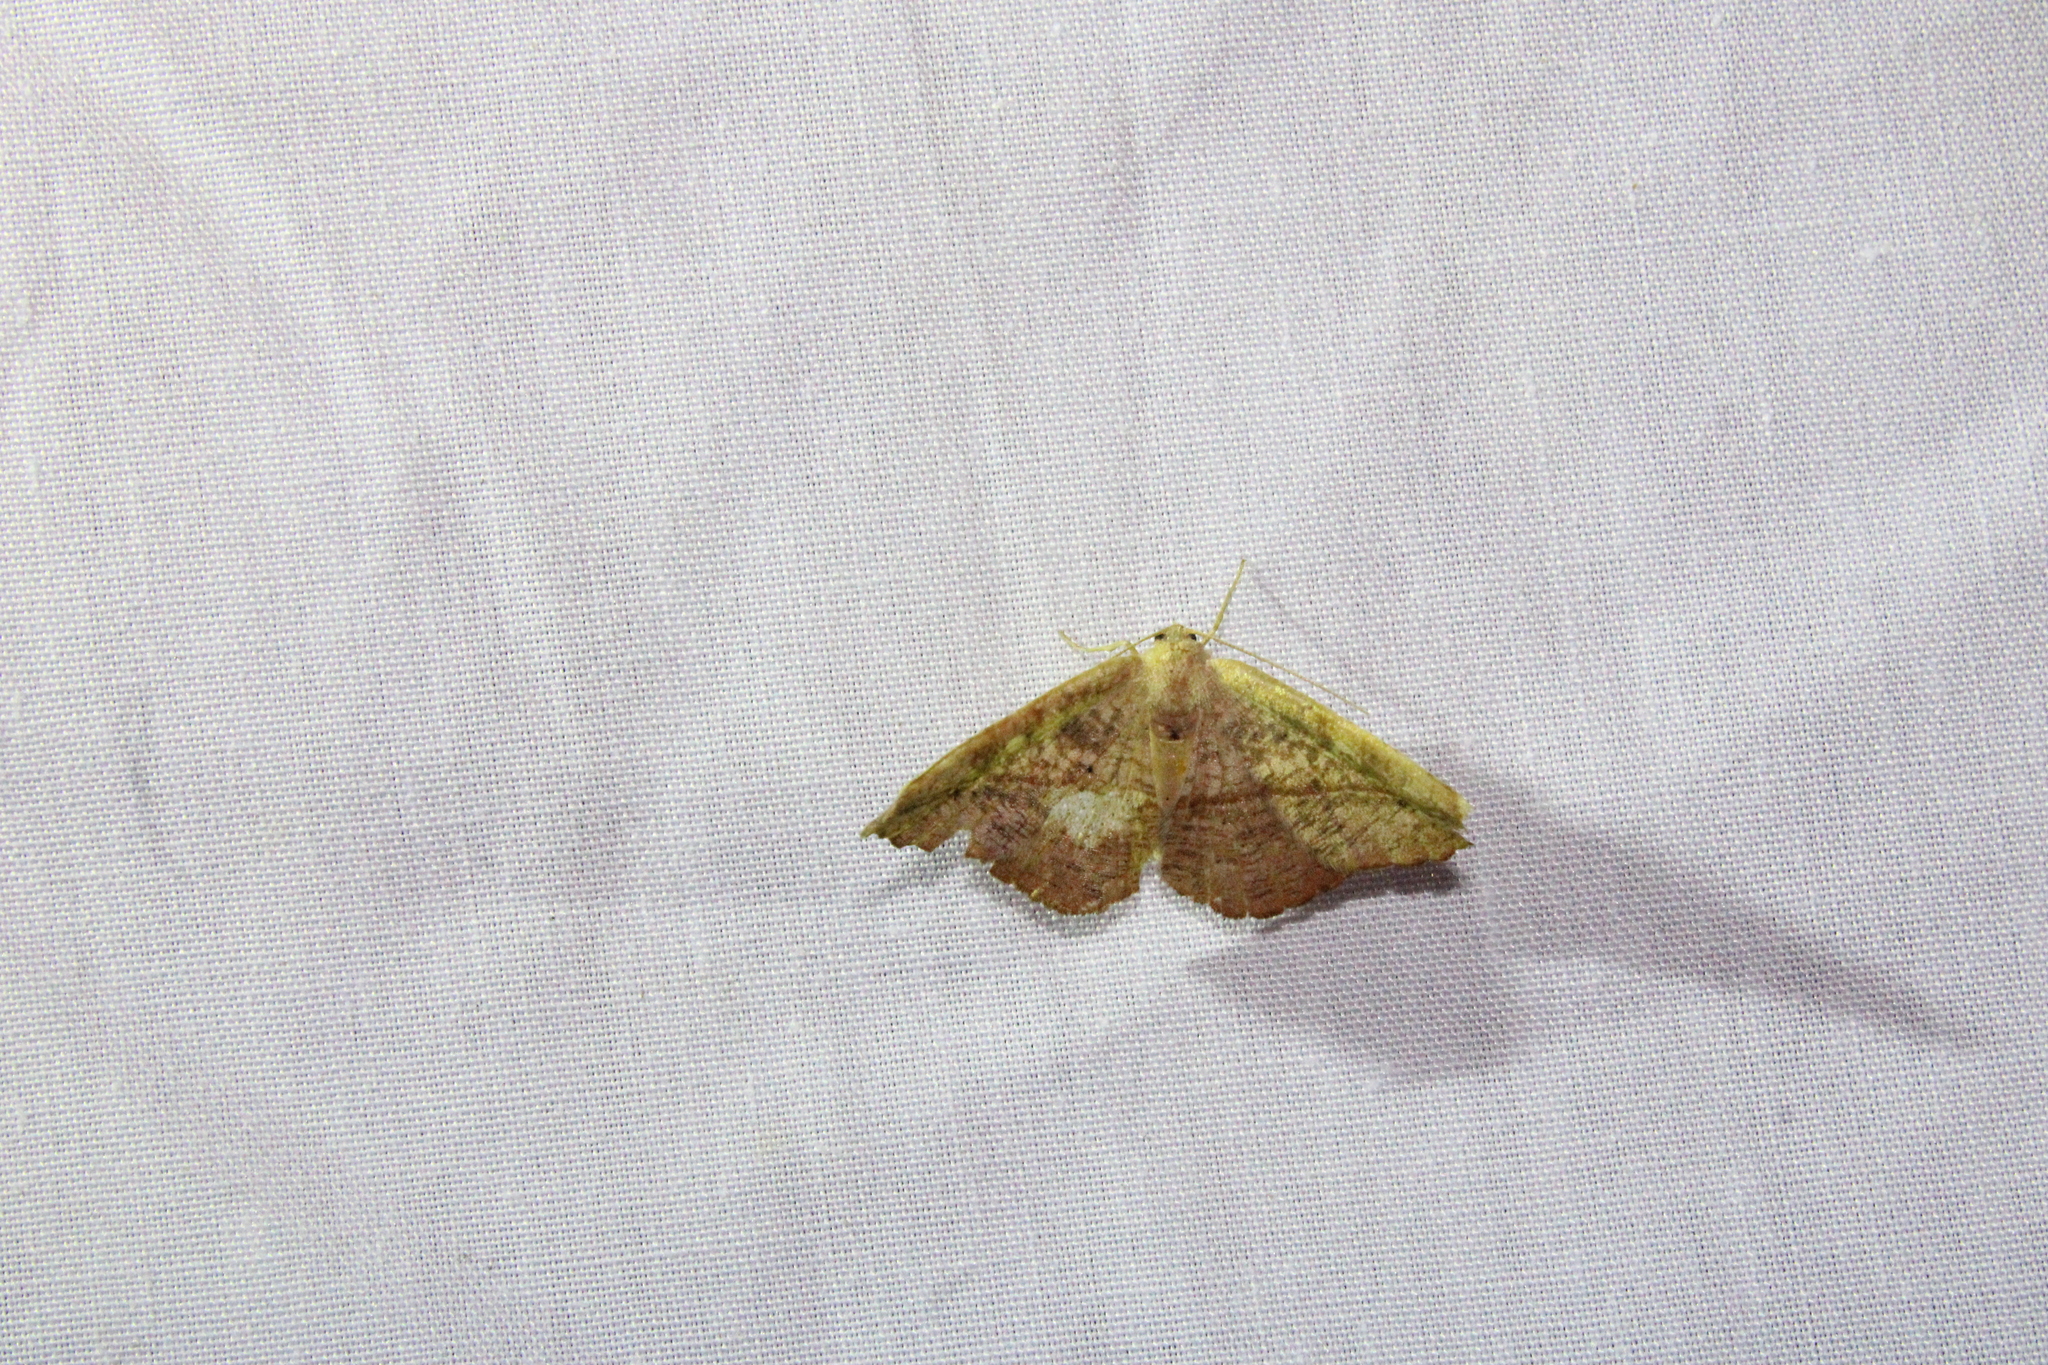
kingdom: Animalia
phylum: Arthropoda
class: Insecta
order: Lepidoptera
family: Geometridae
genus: Patalene
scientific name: Patalene olyzonaria
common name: Juniper geometer moth
